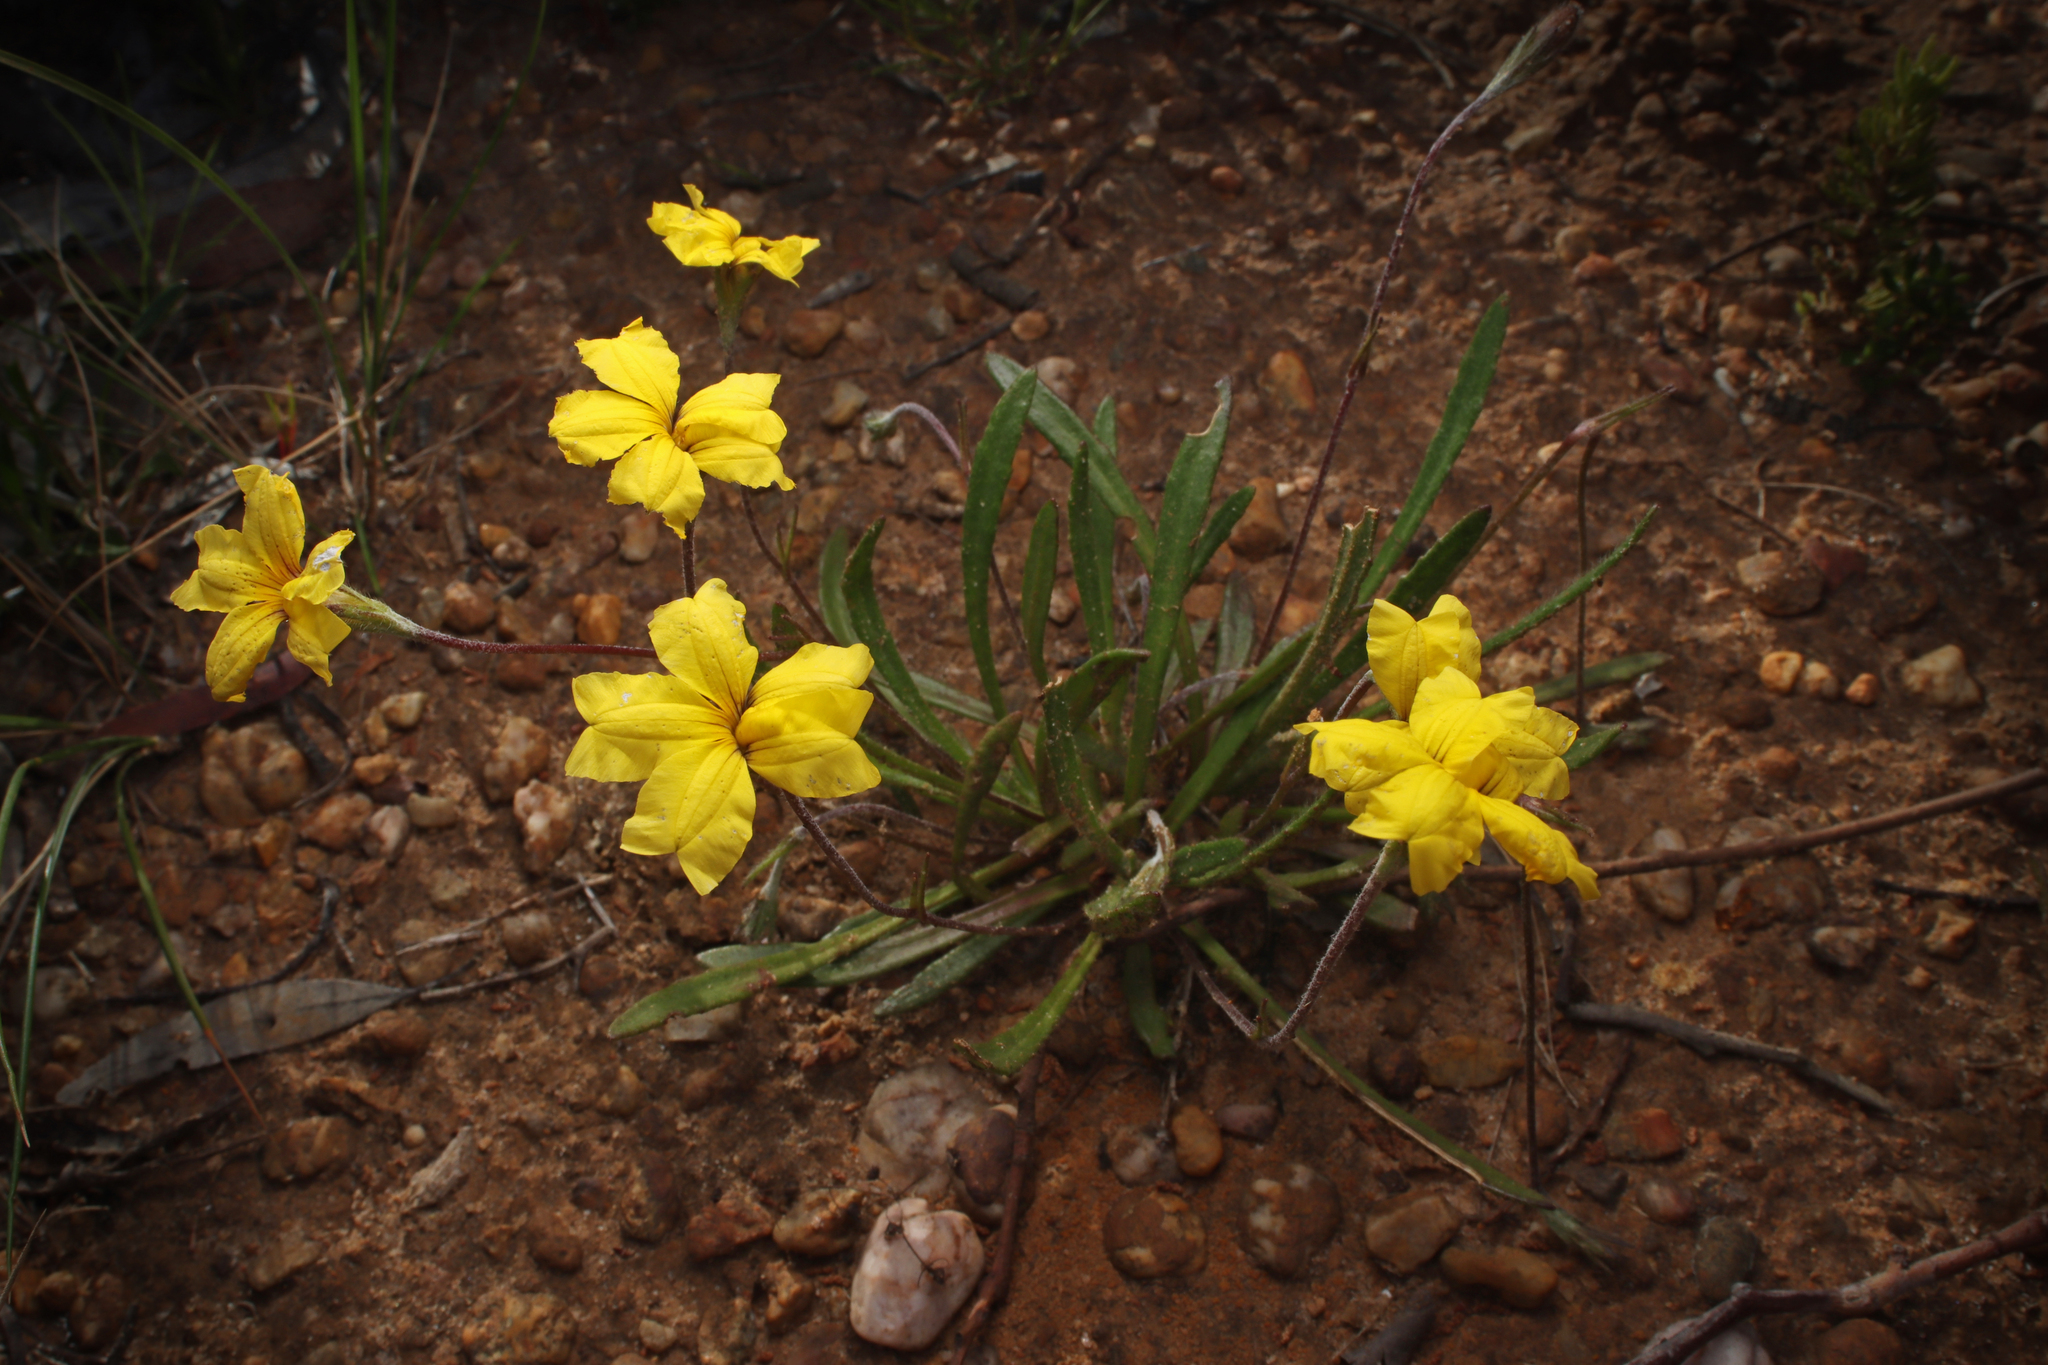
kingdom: Plantae
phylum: Tracheophyta
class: Magnoliopsida
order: Asterales
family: Goodeniaceae
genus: Goodenia
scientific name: Goodenia geniculata
